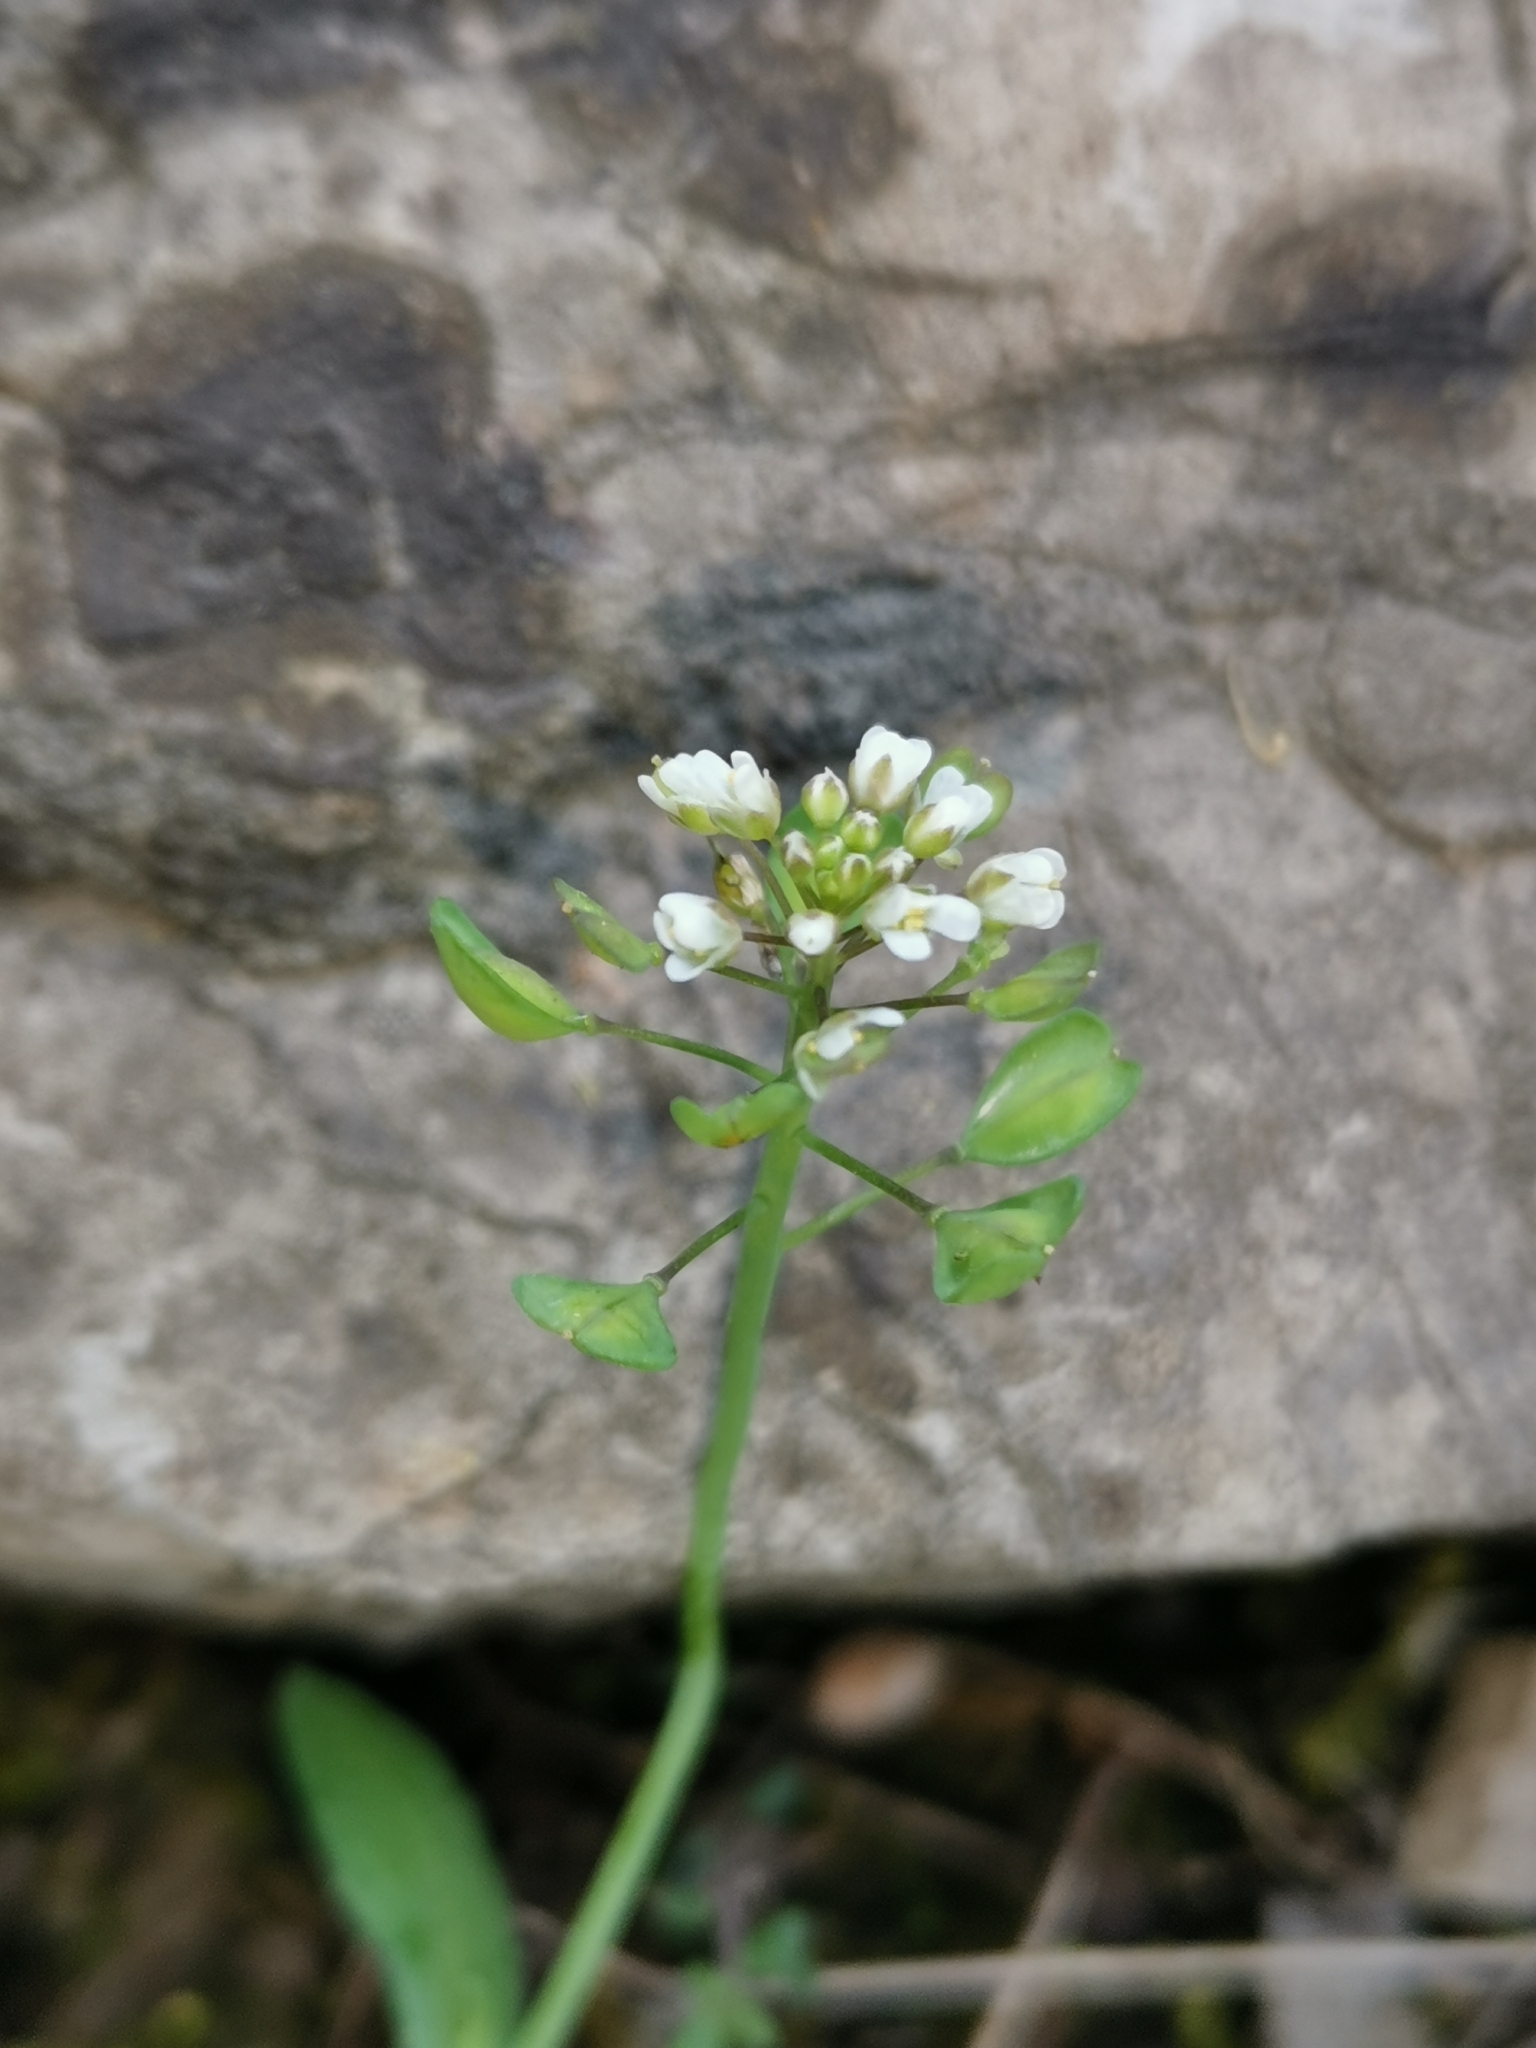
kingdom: Plantae
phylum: Tracheophyta
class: Magnoliopsida
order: Brassicales
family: Brassicaceae
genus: Capsella
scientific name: Capsella bursa-pastoris
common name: Shepherd's purse
